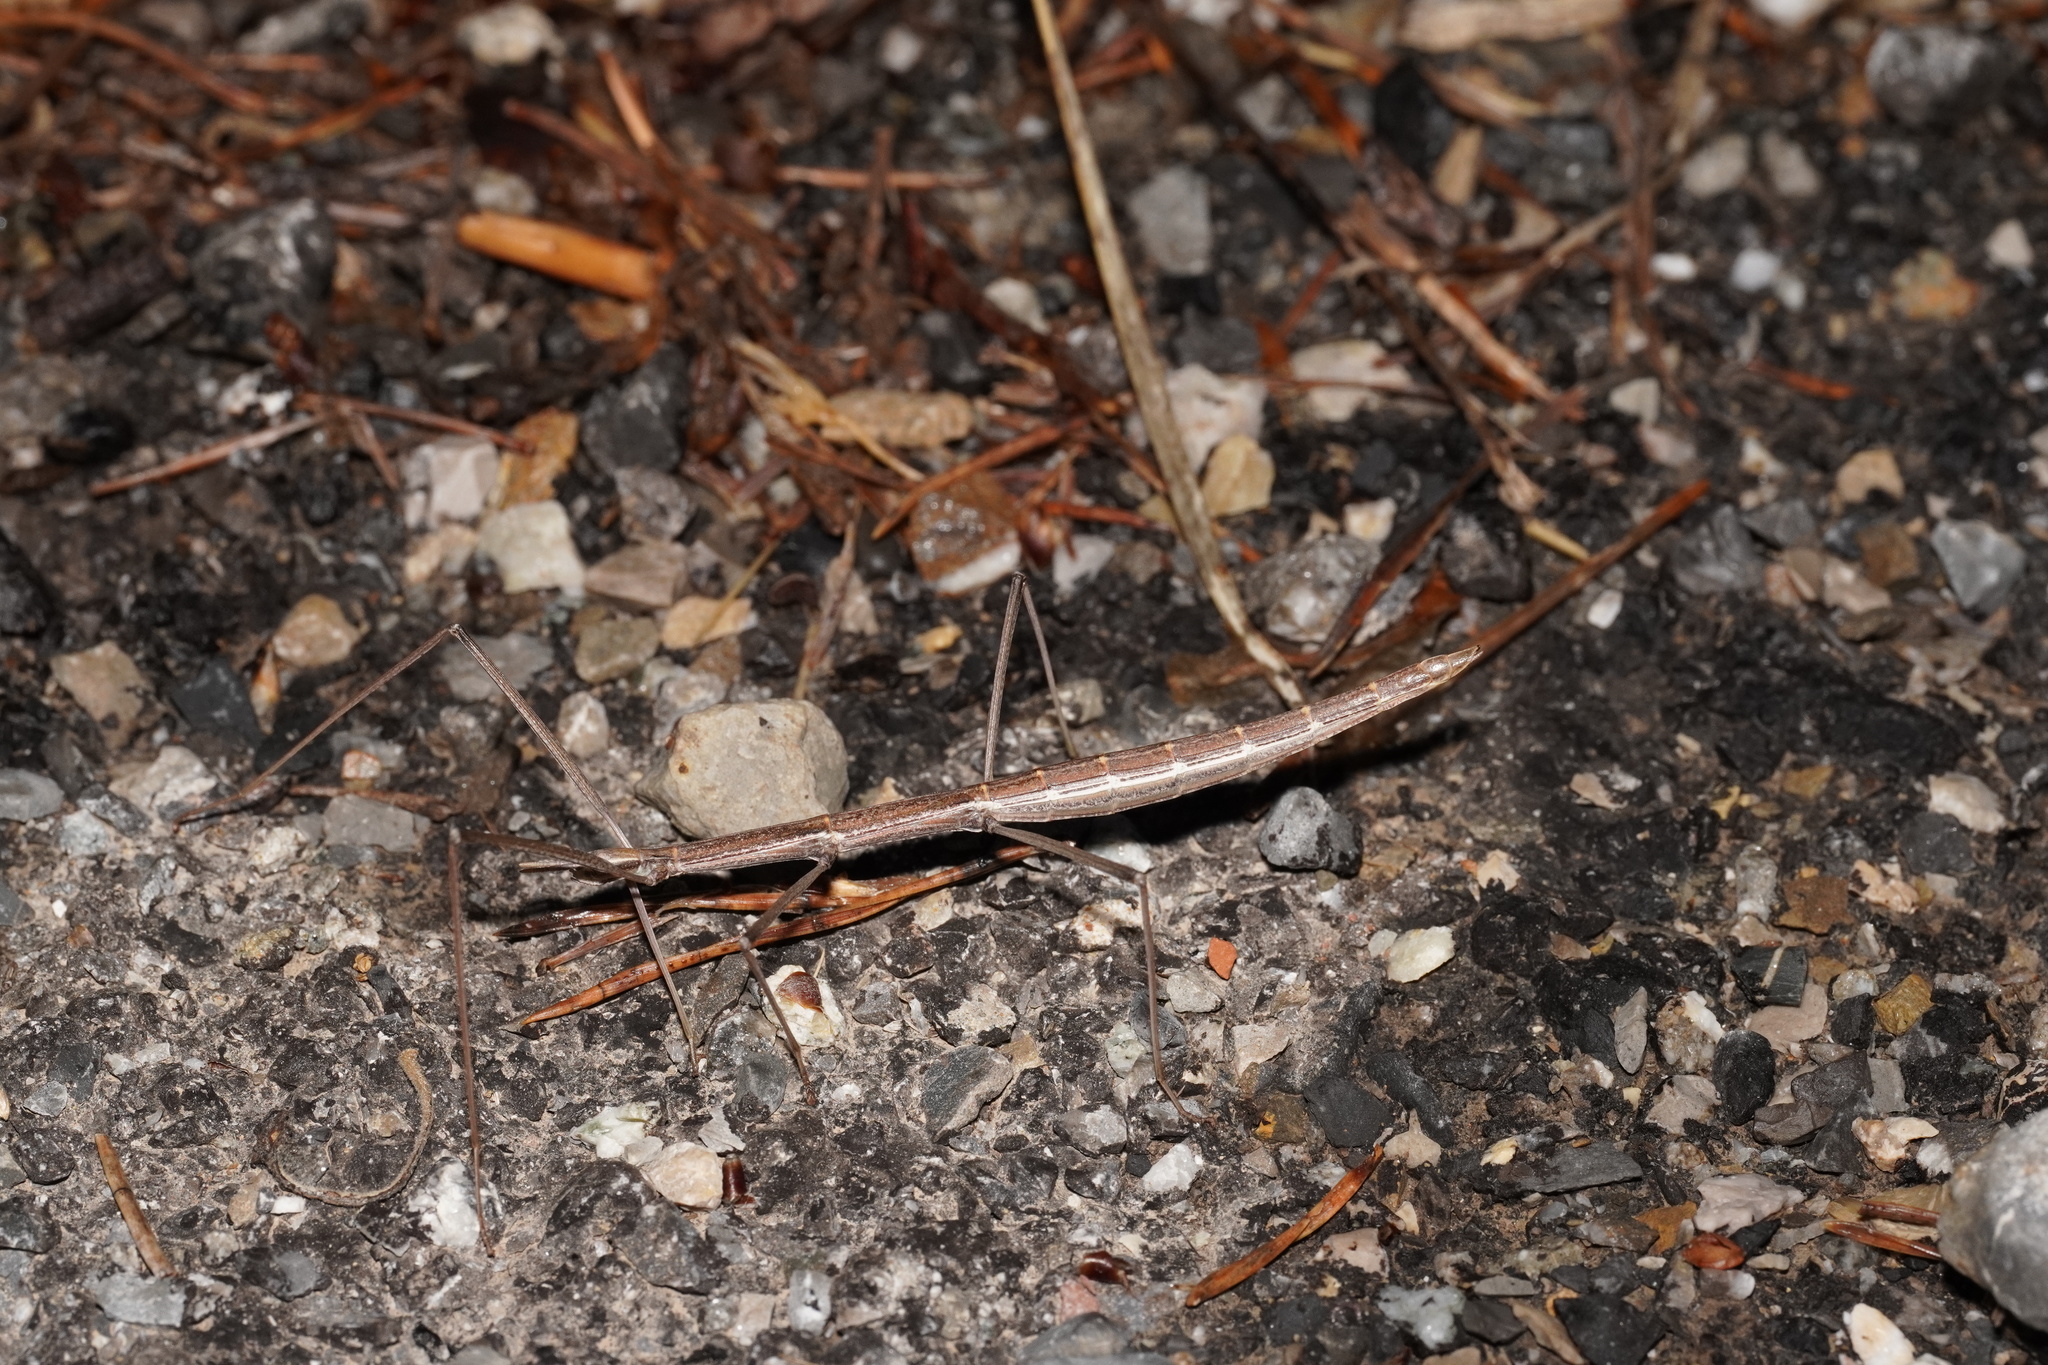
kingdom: Animalia
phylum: Arthropoda
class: Insecta
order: Phasmida
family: Bacillidae
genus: Pijnackeria
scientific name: Pijnackeria masettii
